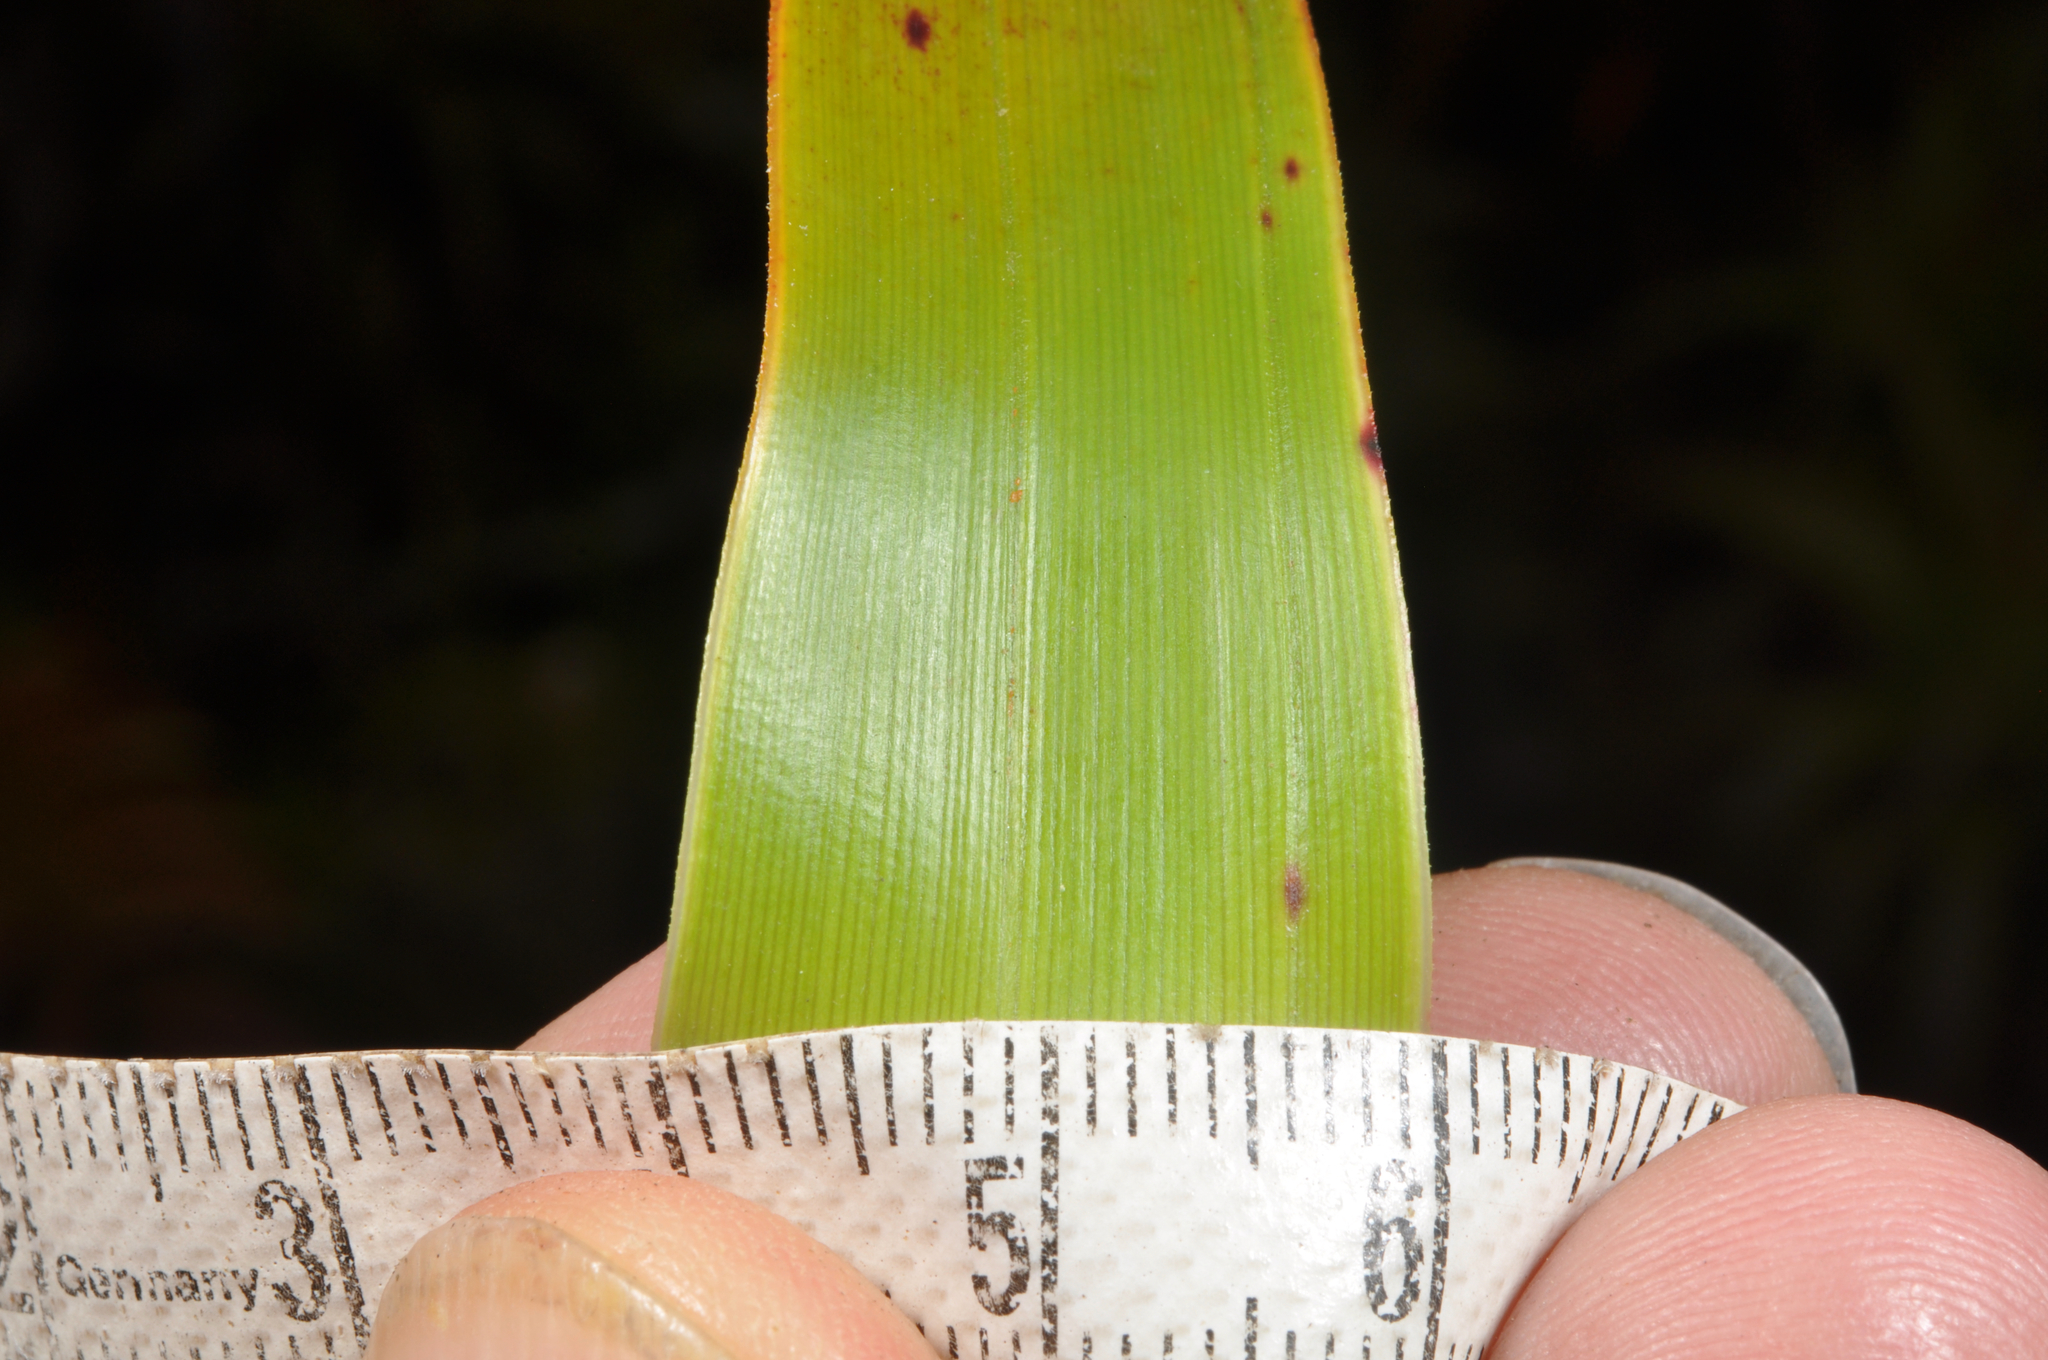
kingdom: Plantae
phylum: Tracheophyta
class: Magnoliopsida
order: Ericales
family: Ericaceae
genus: Dracophyllum
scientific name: Dracophyllum menziesii
